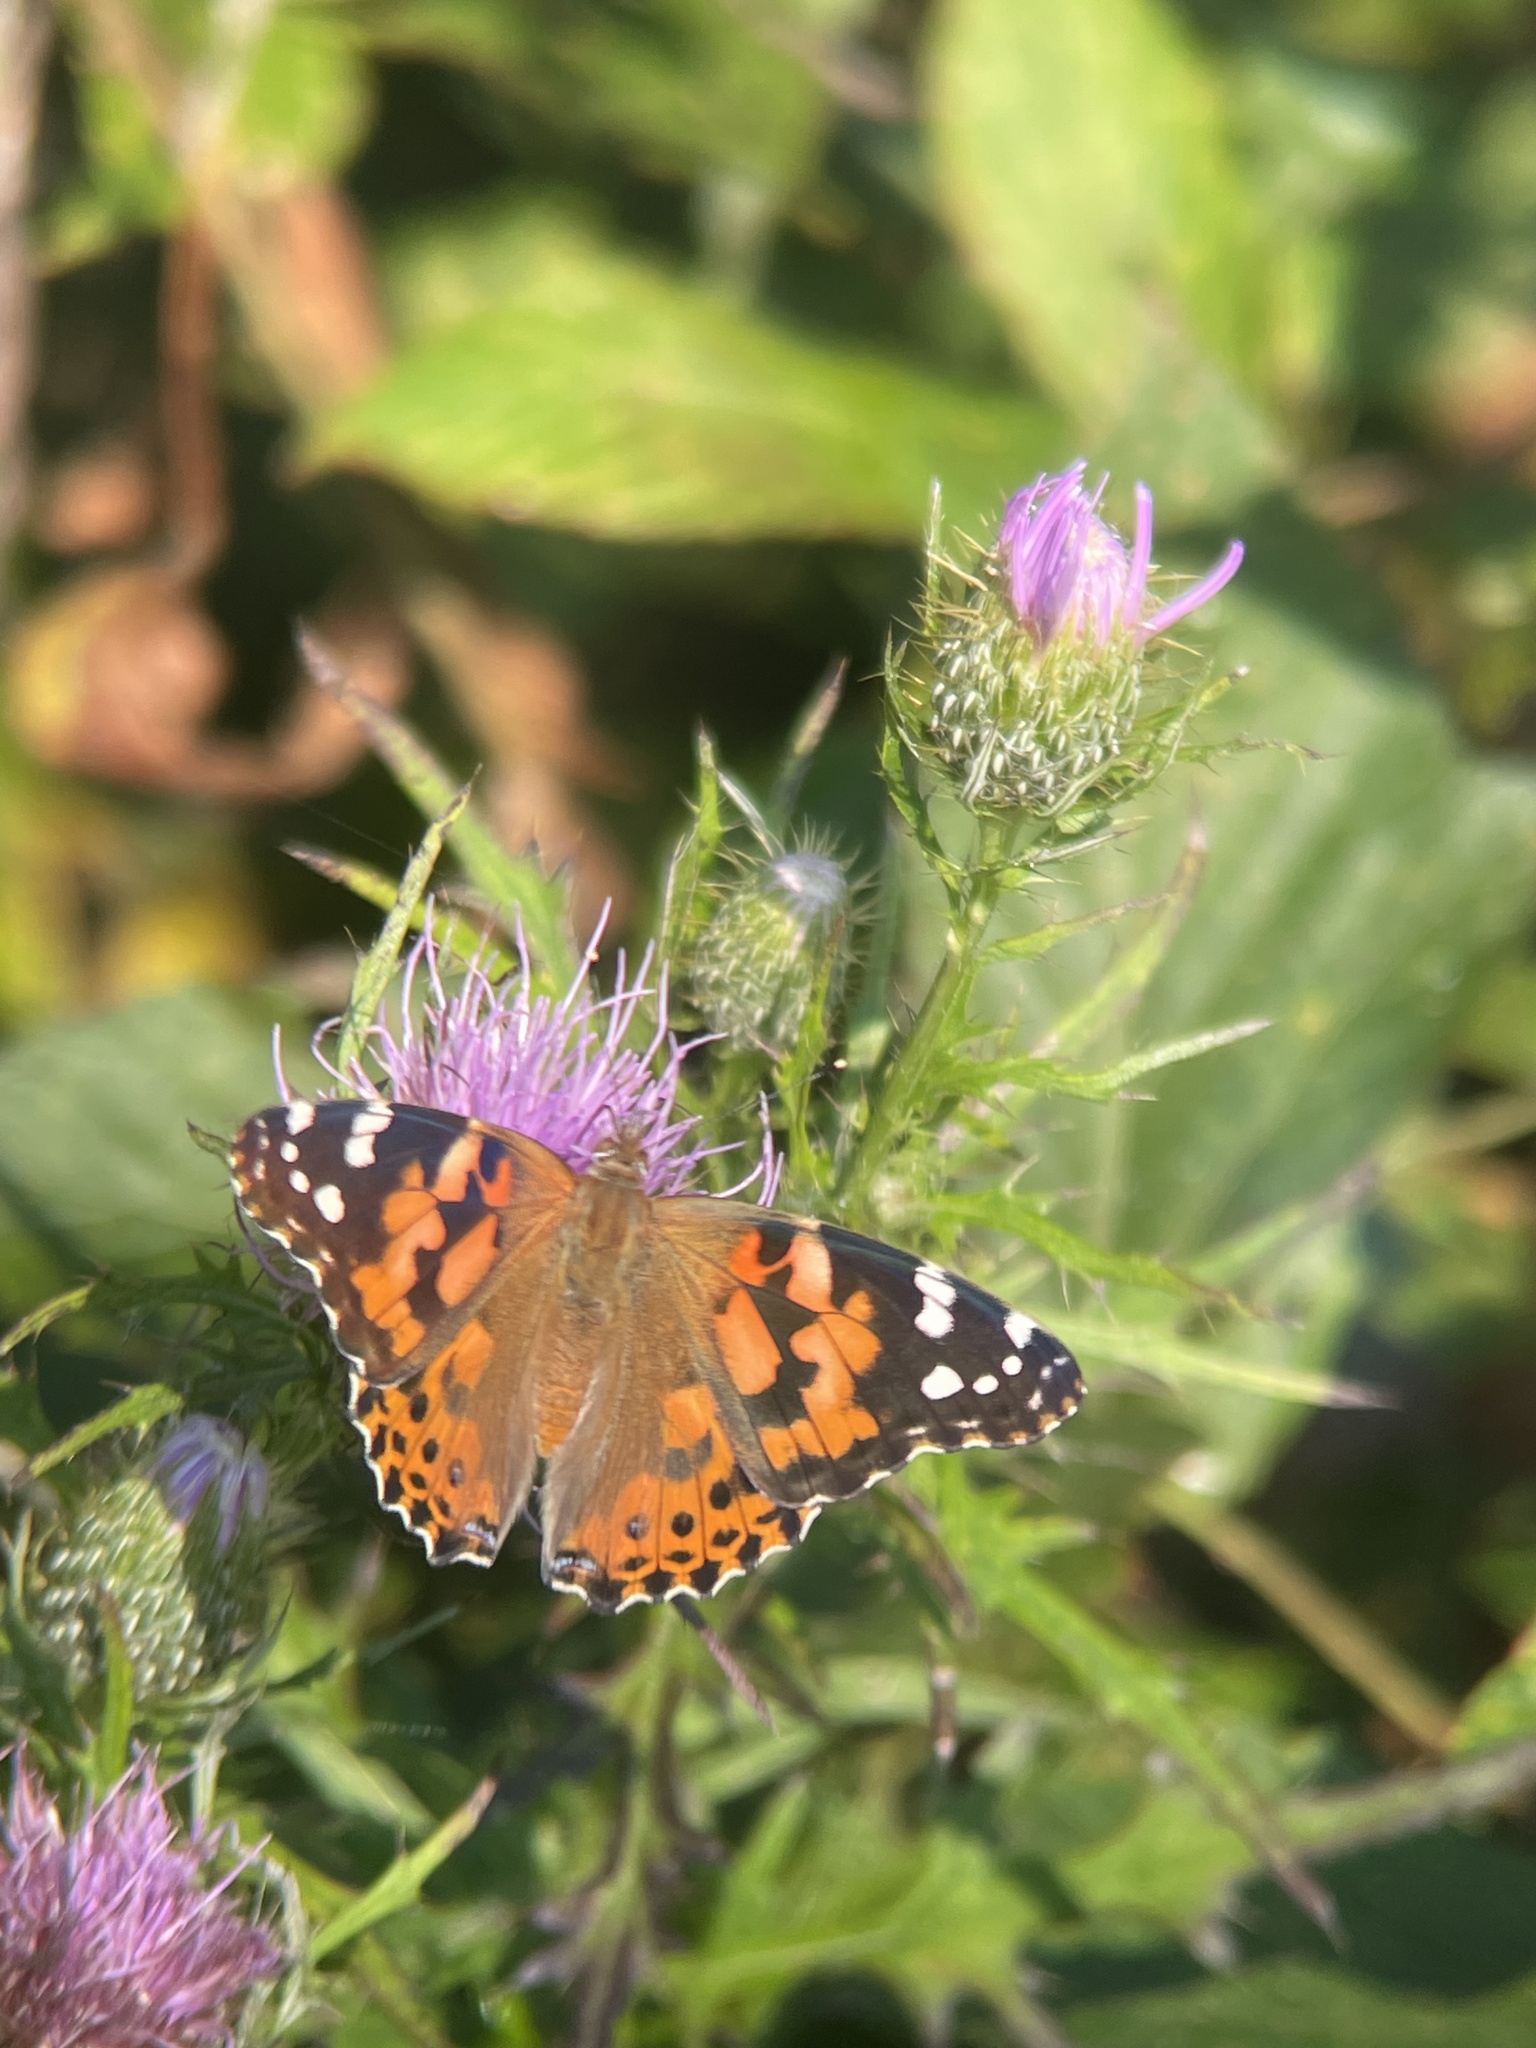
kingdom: Animalia
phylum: Arthropoda
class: Insecta
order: Lepidoptera
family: Nymphalidae
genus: Vanessa
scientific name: Vanessa cardui
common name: Painted lady
